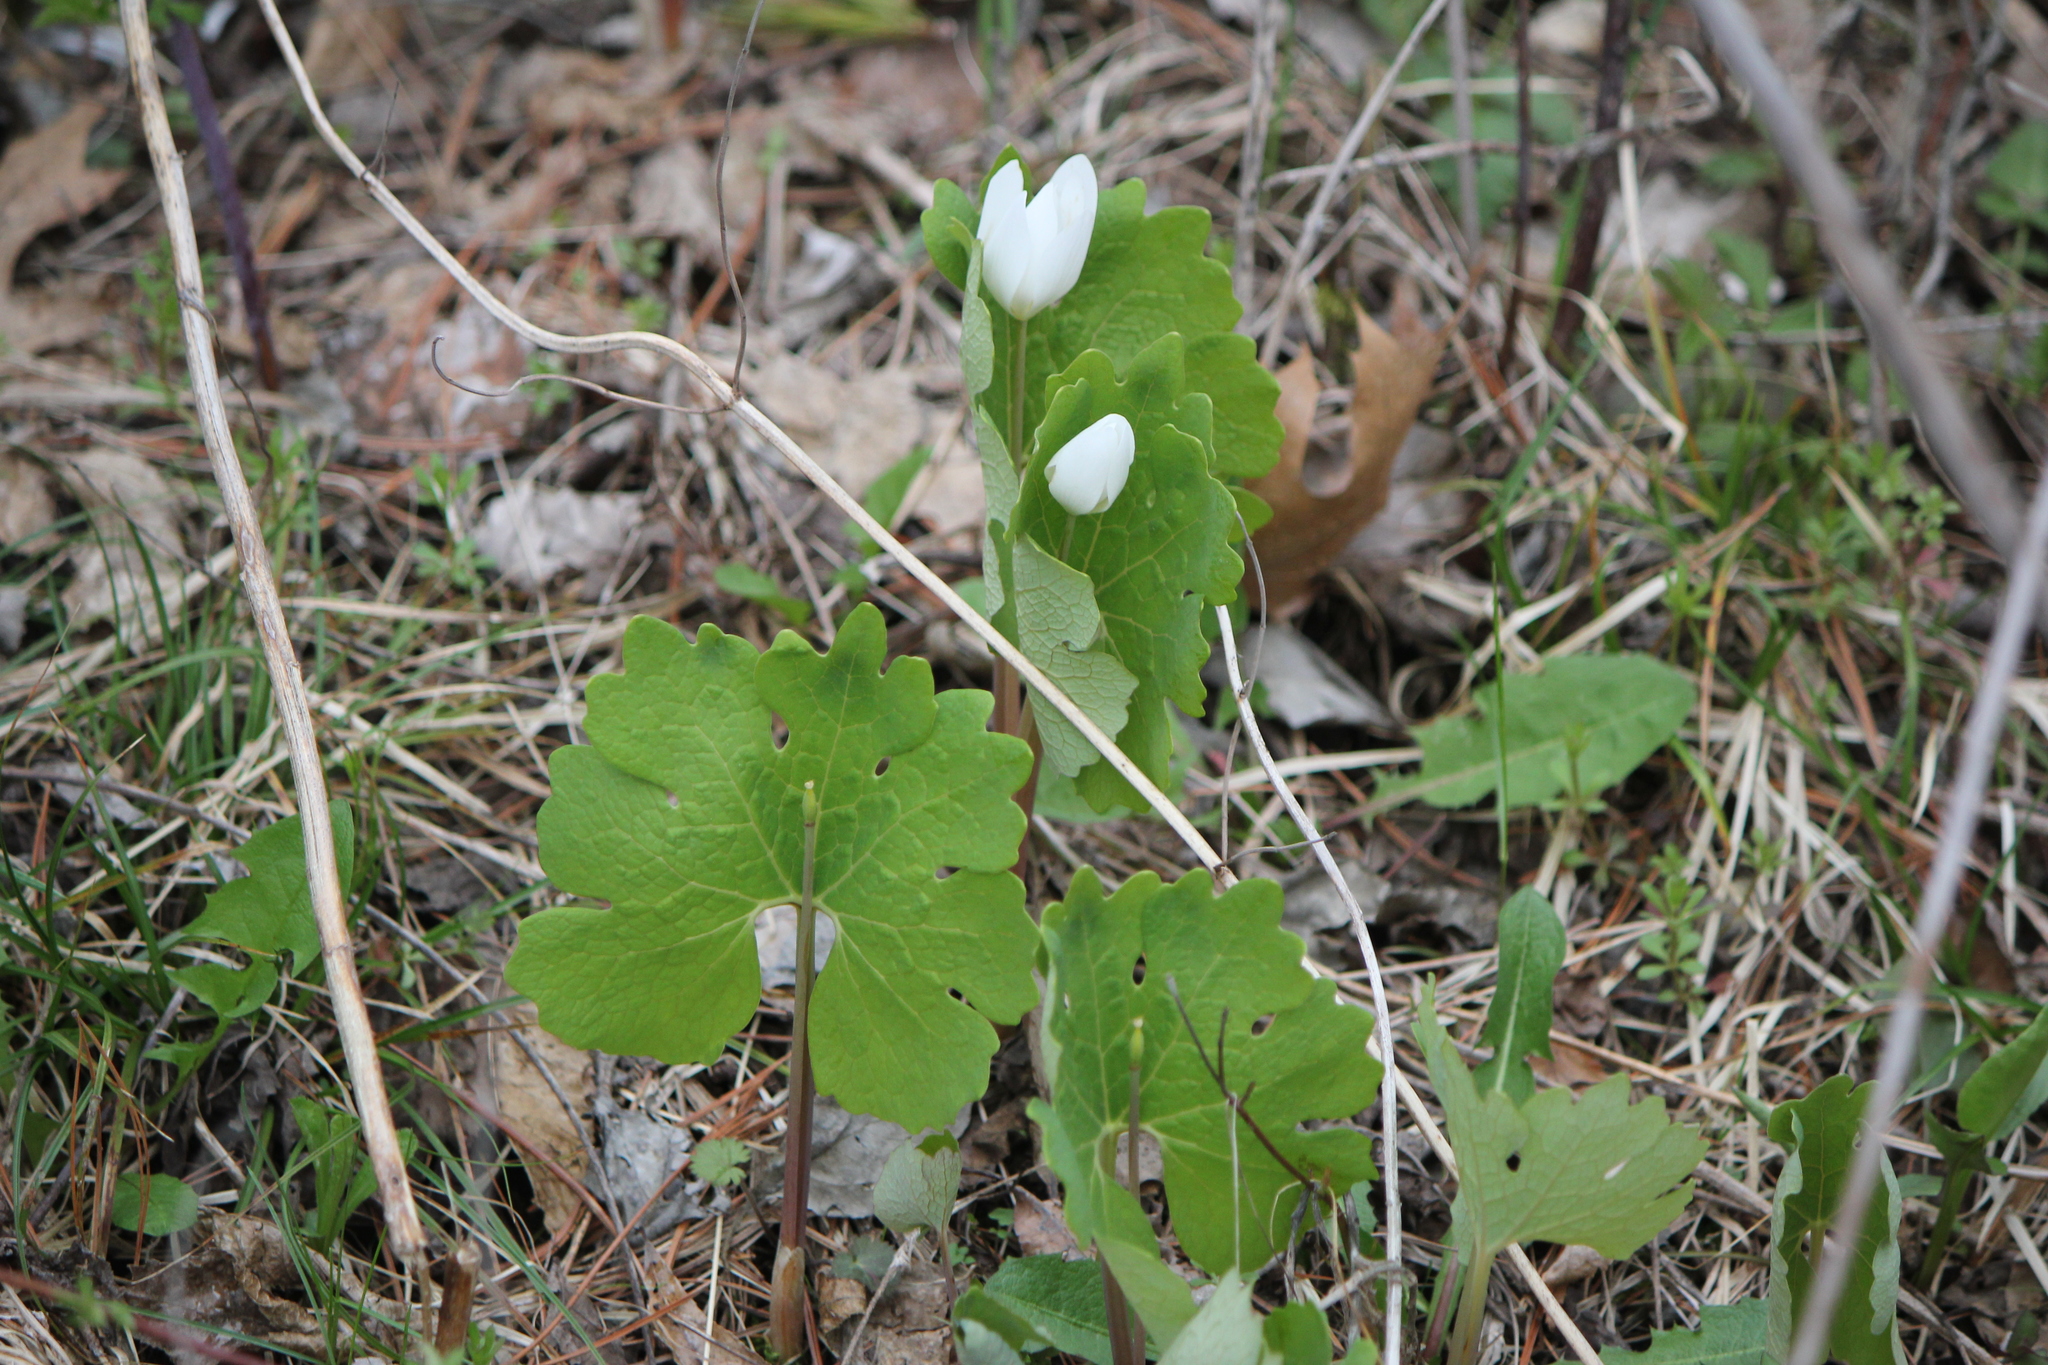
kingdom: Plantae
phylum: Tracheophyta
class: Magnoliopsida
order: Ranunculales
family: Papaveraceae
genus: Sanguinaria
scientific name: Sanguinaria canadensis
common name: Bloodroot
